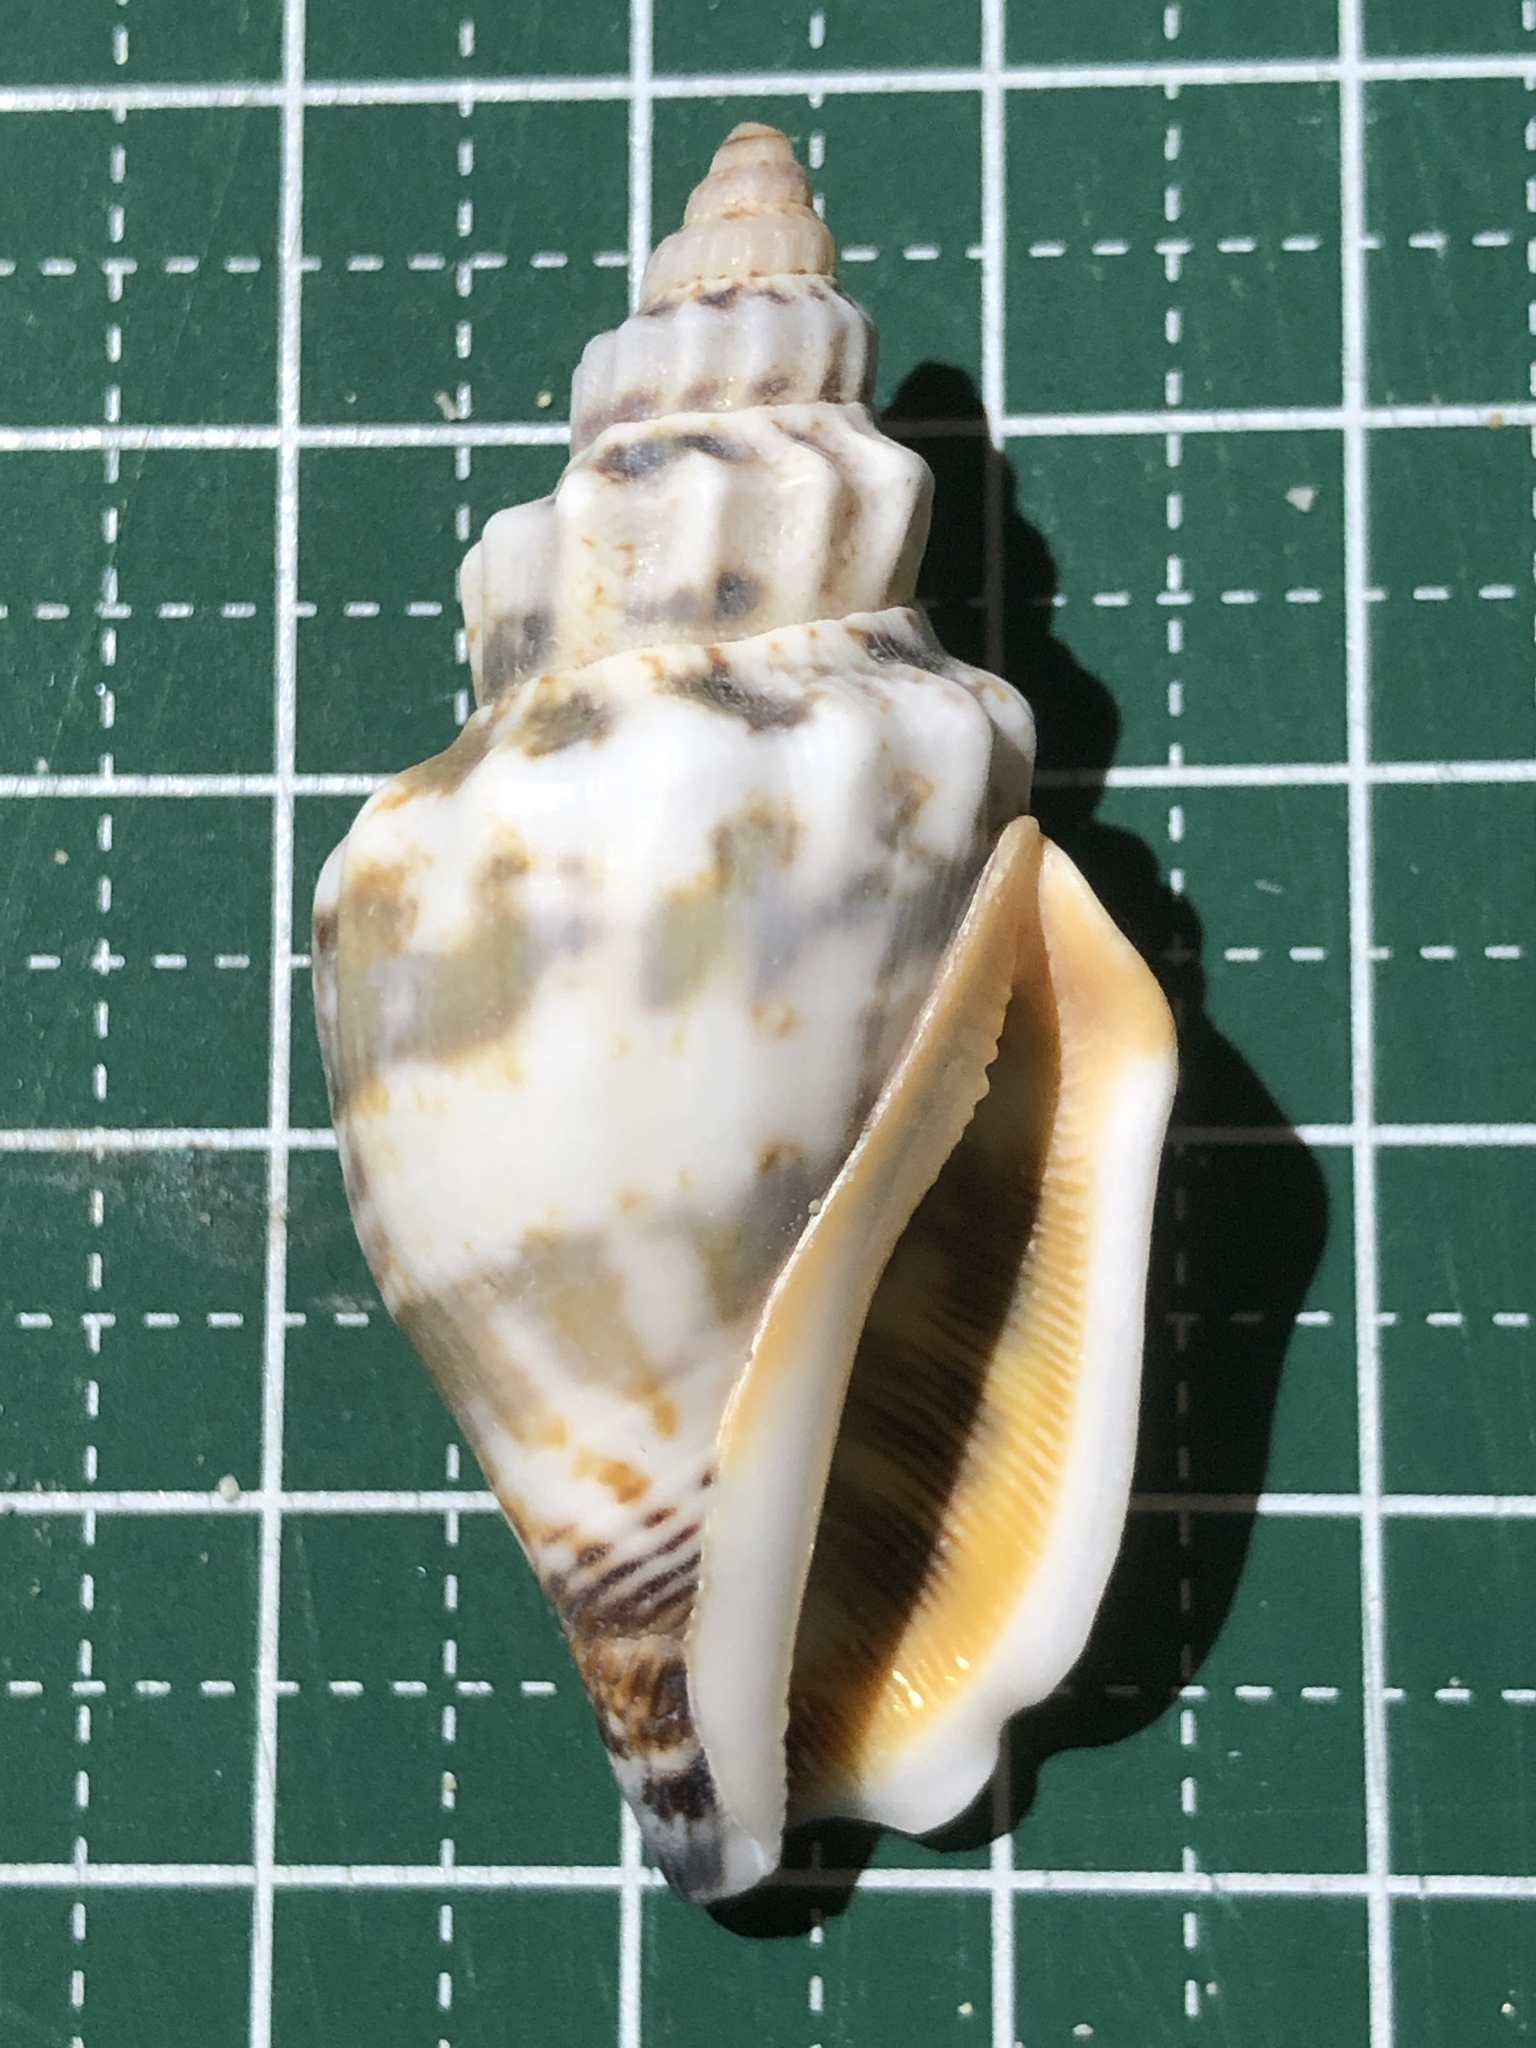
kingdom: Animalia
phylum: Mollusca
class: Gastropoda
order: Littorinimorpha
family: Strombidae
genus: Canarium
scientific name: Canarium urceus
